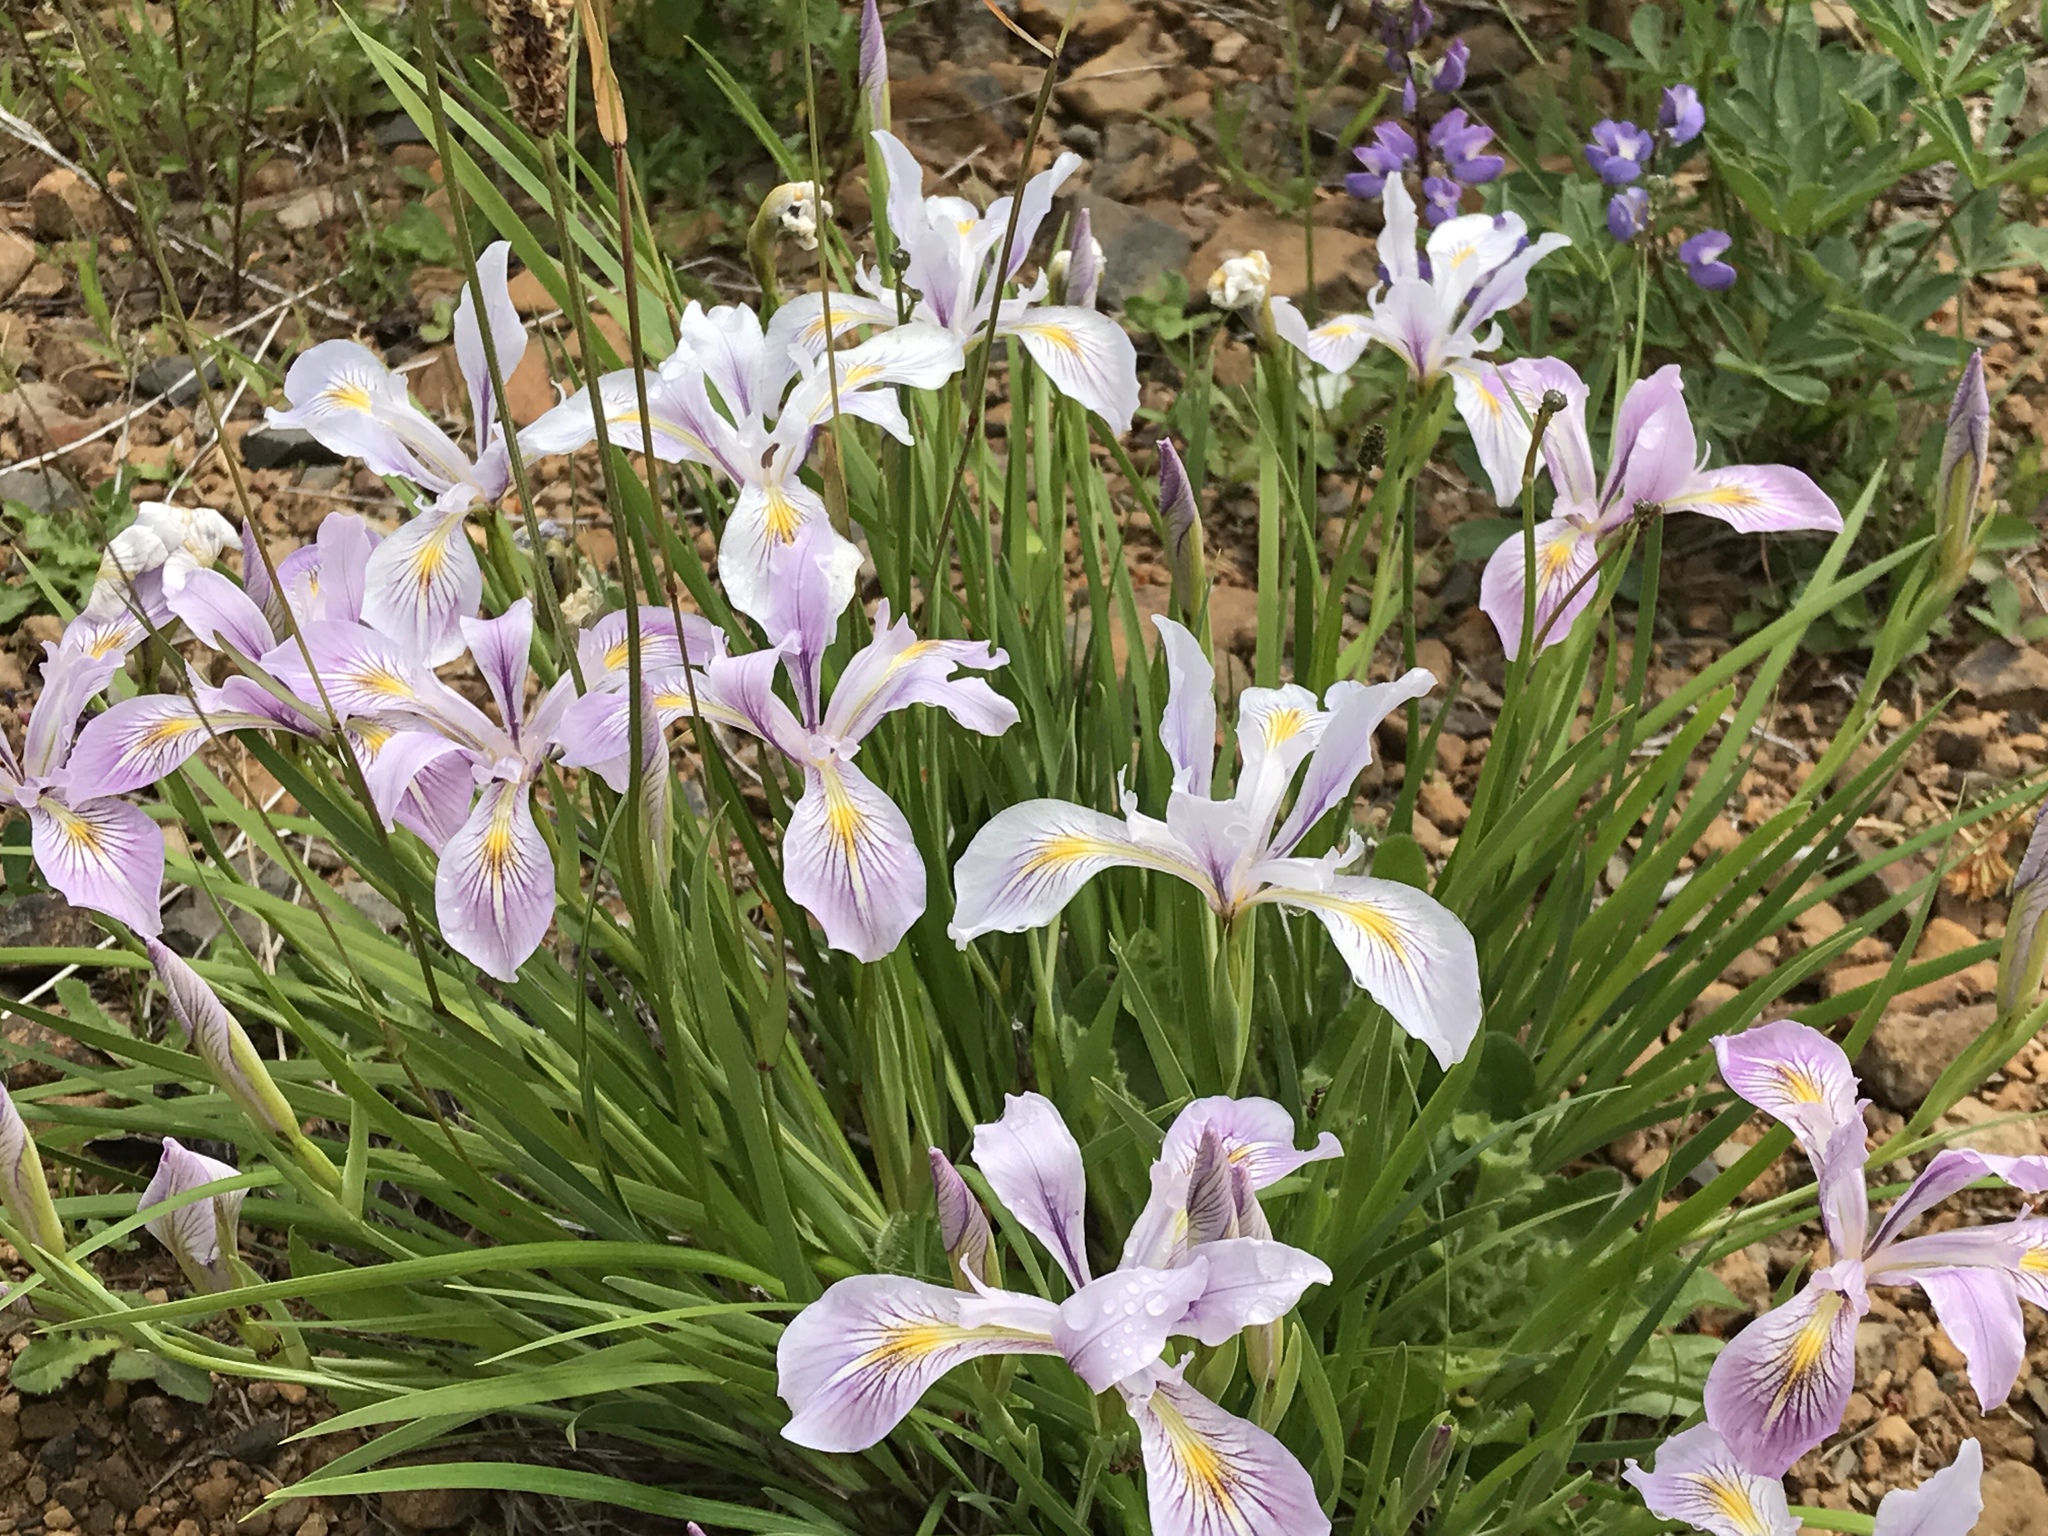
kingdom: Plantae
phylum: Tracheophyta
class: Liliopsida
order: Asparagales
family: Iridaceae
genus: Iris
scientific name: Iris tenax
